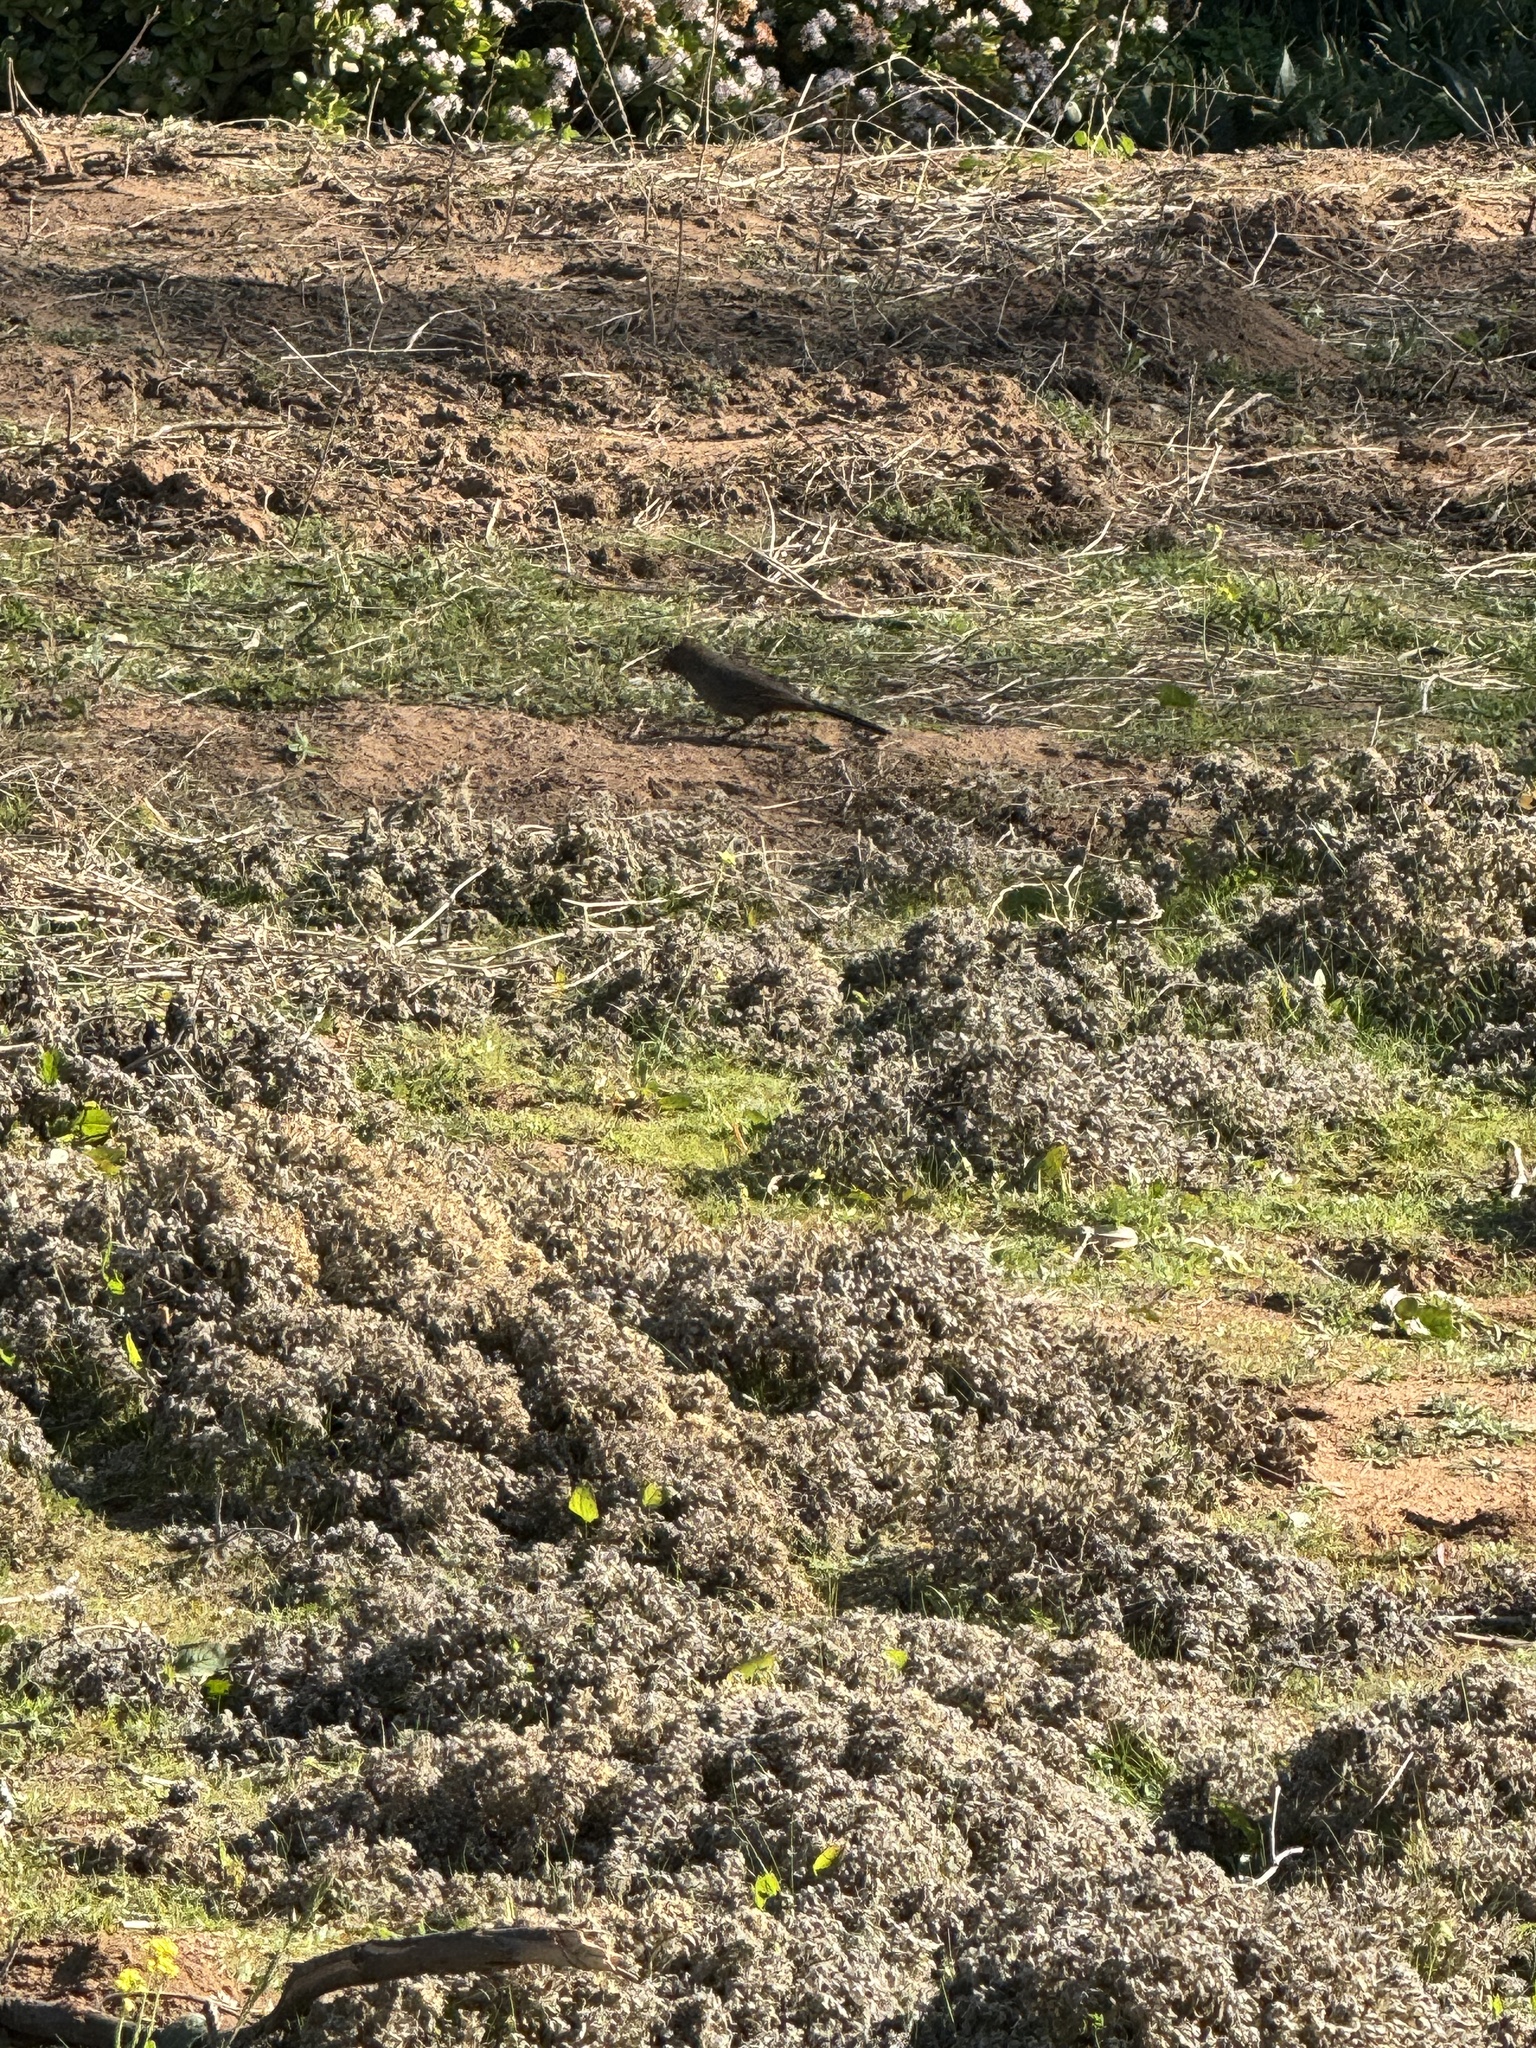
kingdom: Animalia
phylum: Chordata
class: Aves
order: Passeriformes
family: Passerellidae
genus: Melozone
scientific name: Melozone crissalis
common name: California towhee
